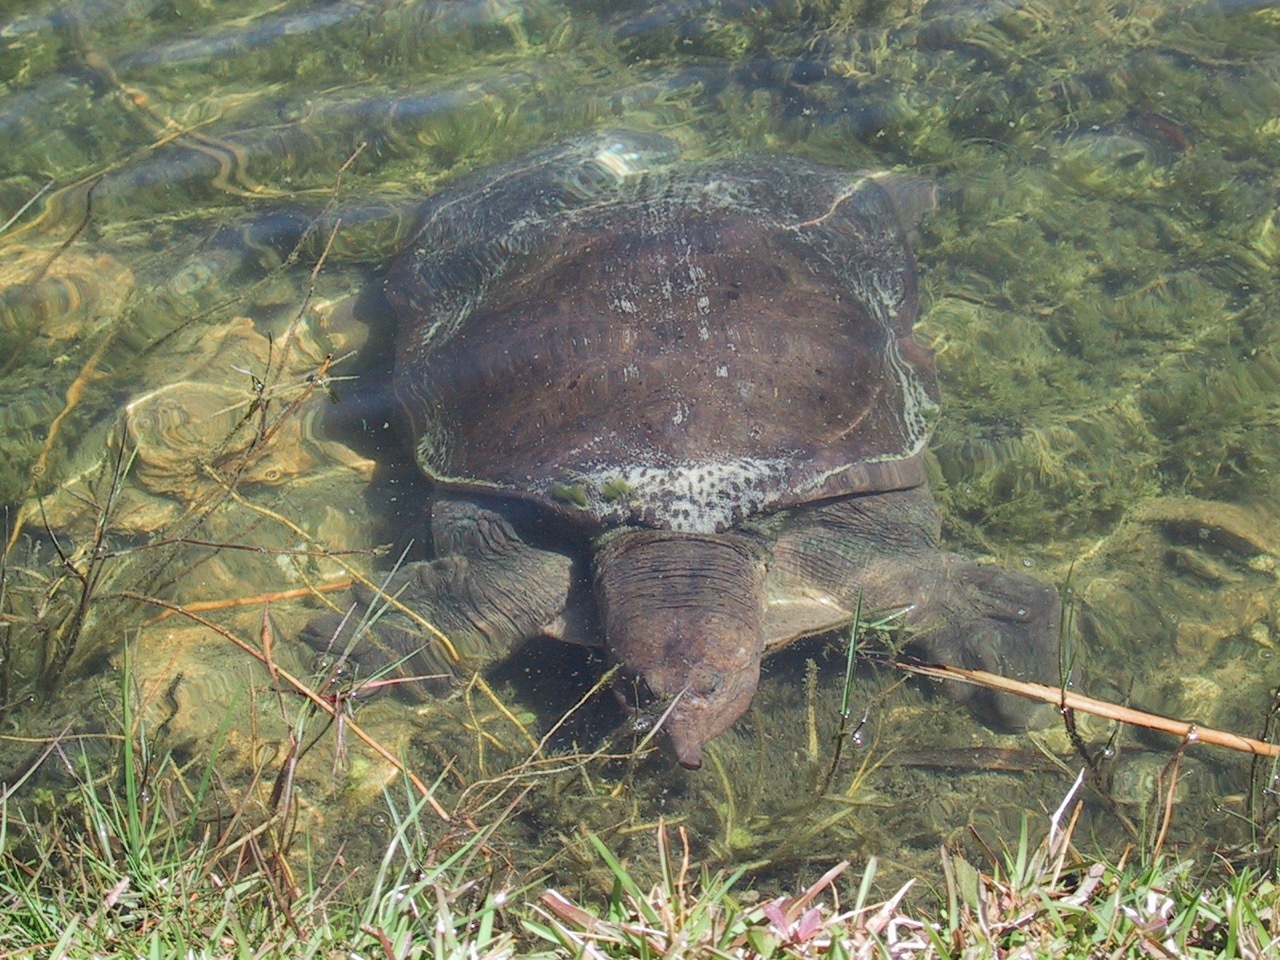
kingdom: Animalia
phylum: Chordata
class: Testudines
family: Trionychidae
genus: Apalone
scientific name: Apalone ferox
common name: Florida softshell turtle
